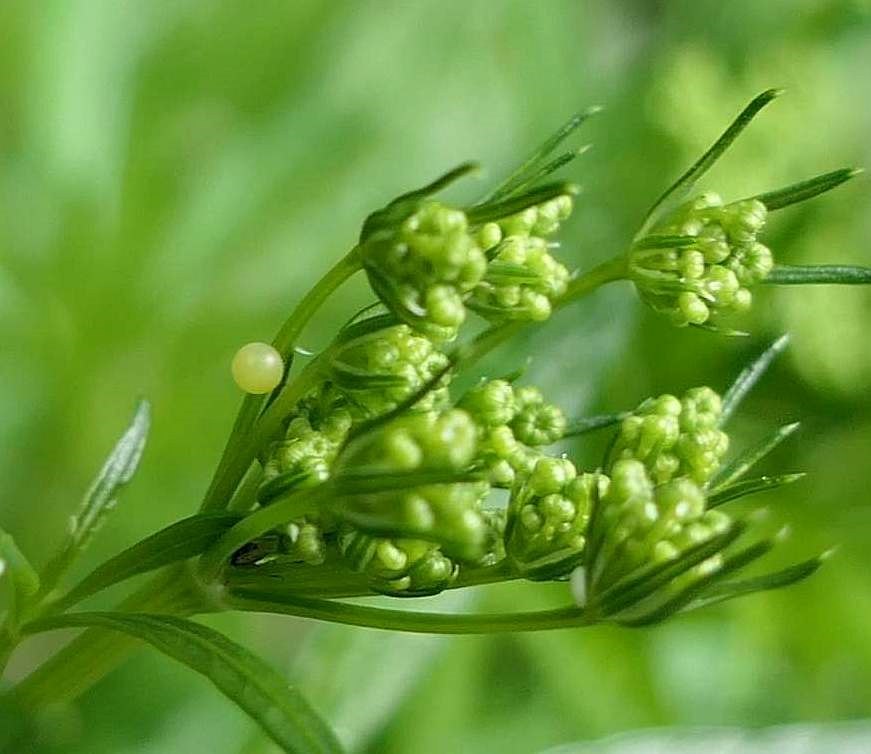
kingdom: Animalia
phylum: Arthropoda
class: Insecta
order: Lepidoptera
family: Papilionidae
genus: Papilio
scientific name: Papilio polyxenes
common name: Black swallowtail
